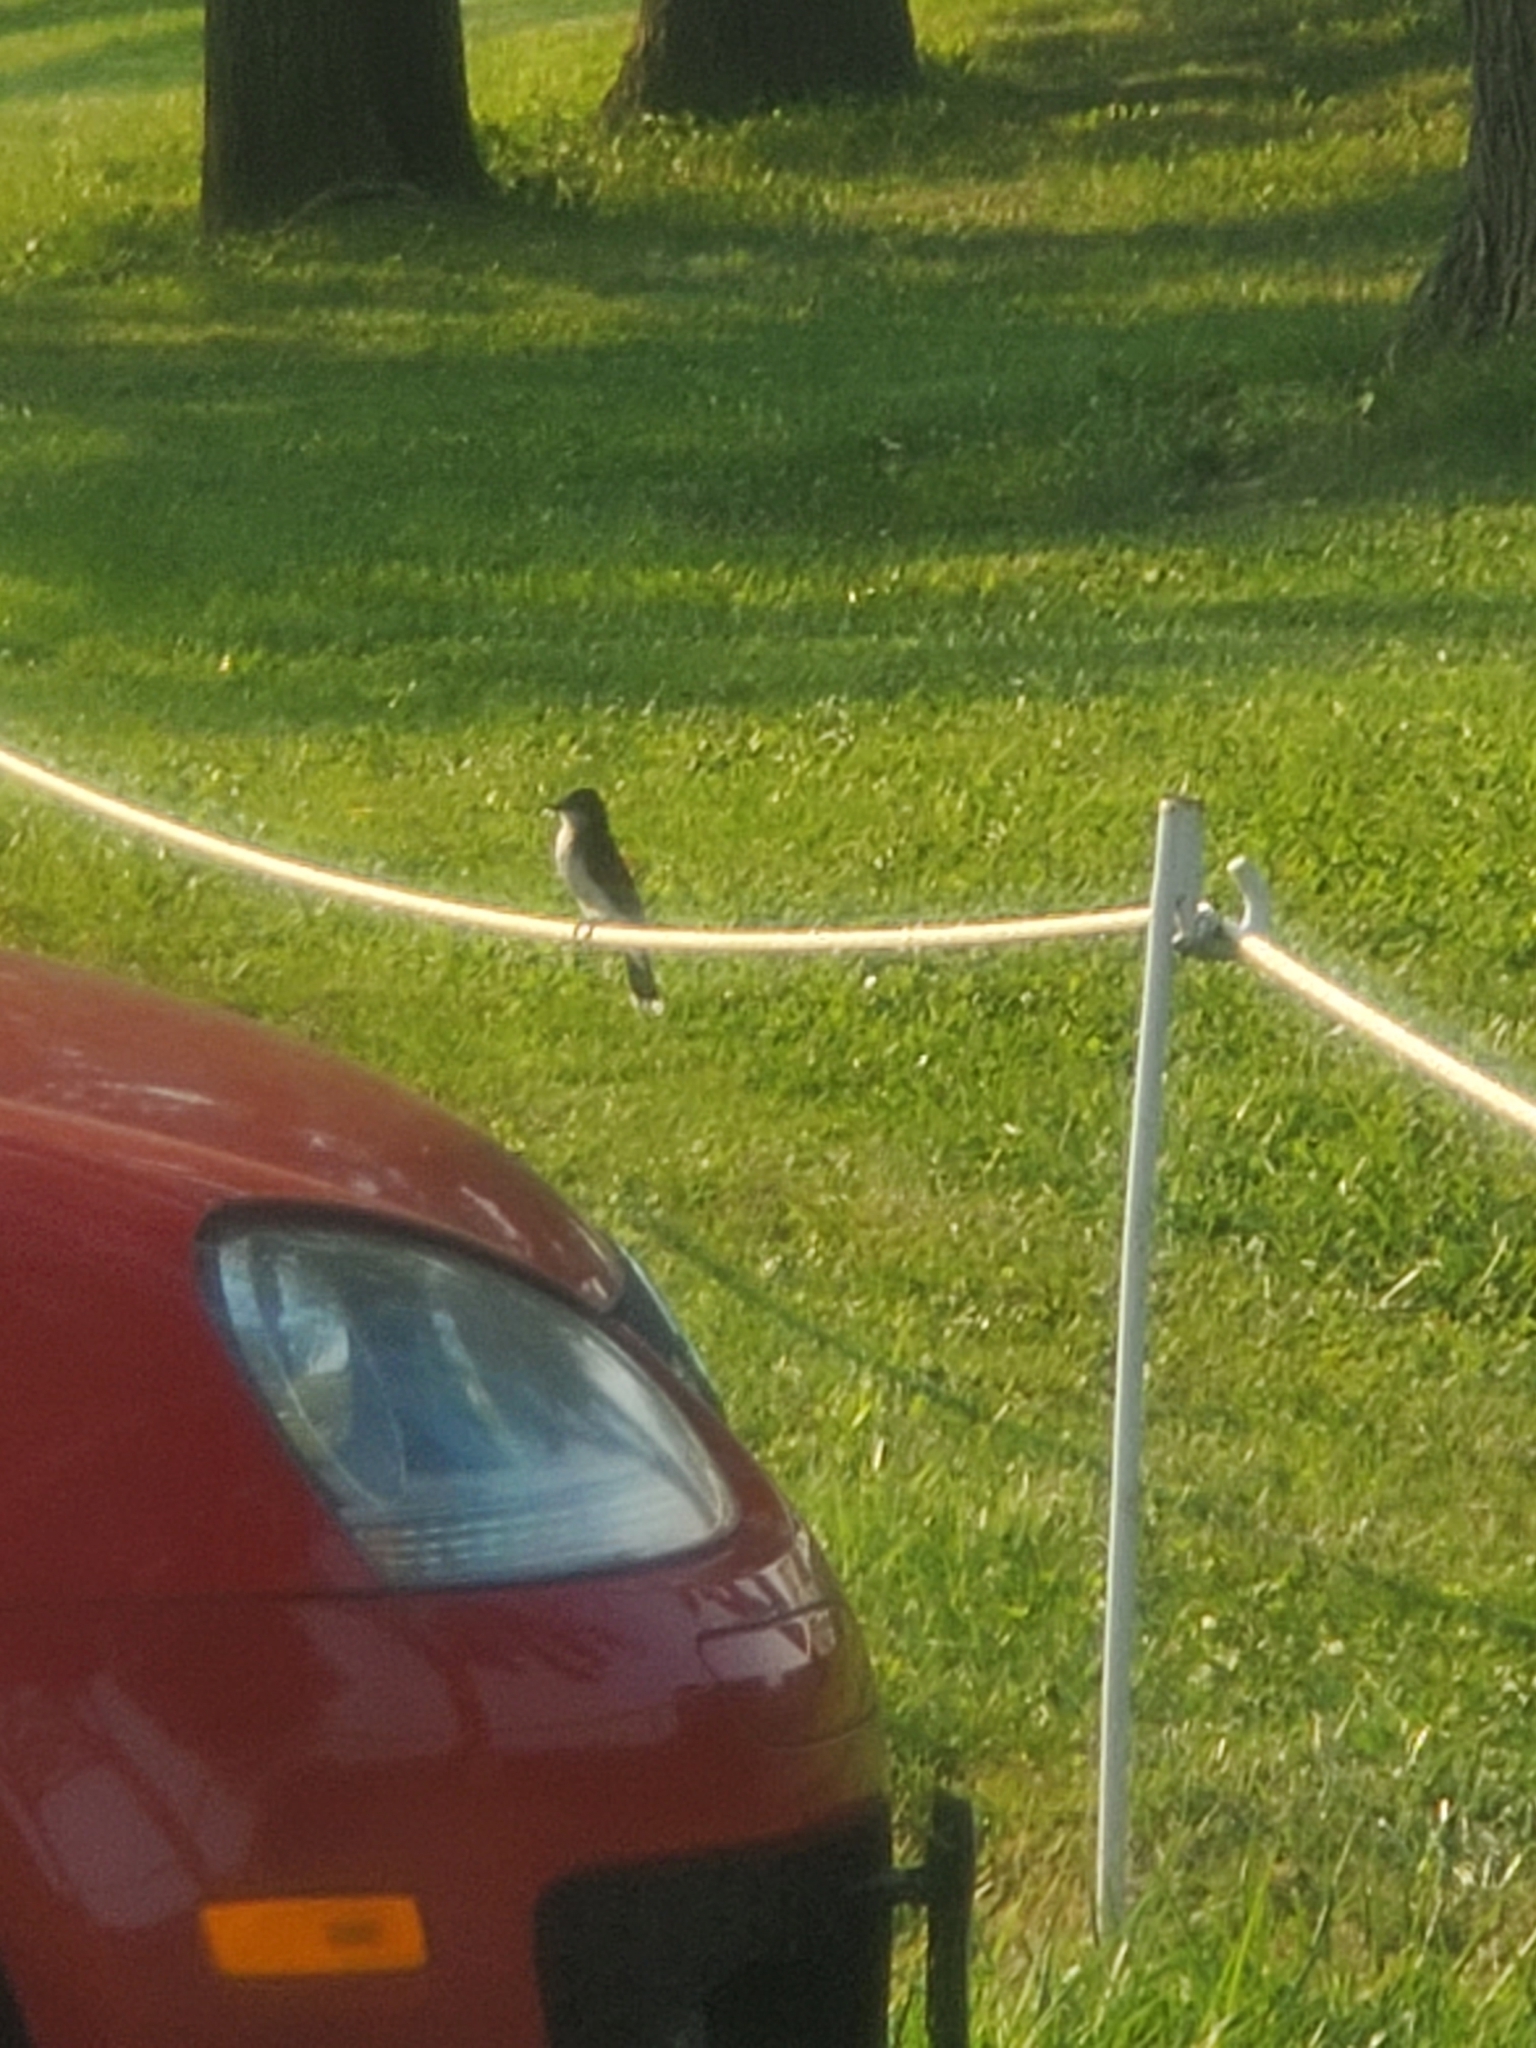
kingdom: Animalia
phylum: Chordata
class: Aves
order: Passeriformes
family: Tyrannidae
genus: Tyrannus
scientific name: Tyrannus tyrannus
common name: Eastern kingbird
